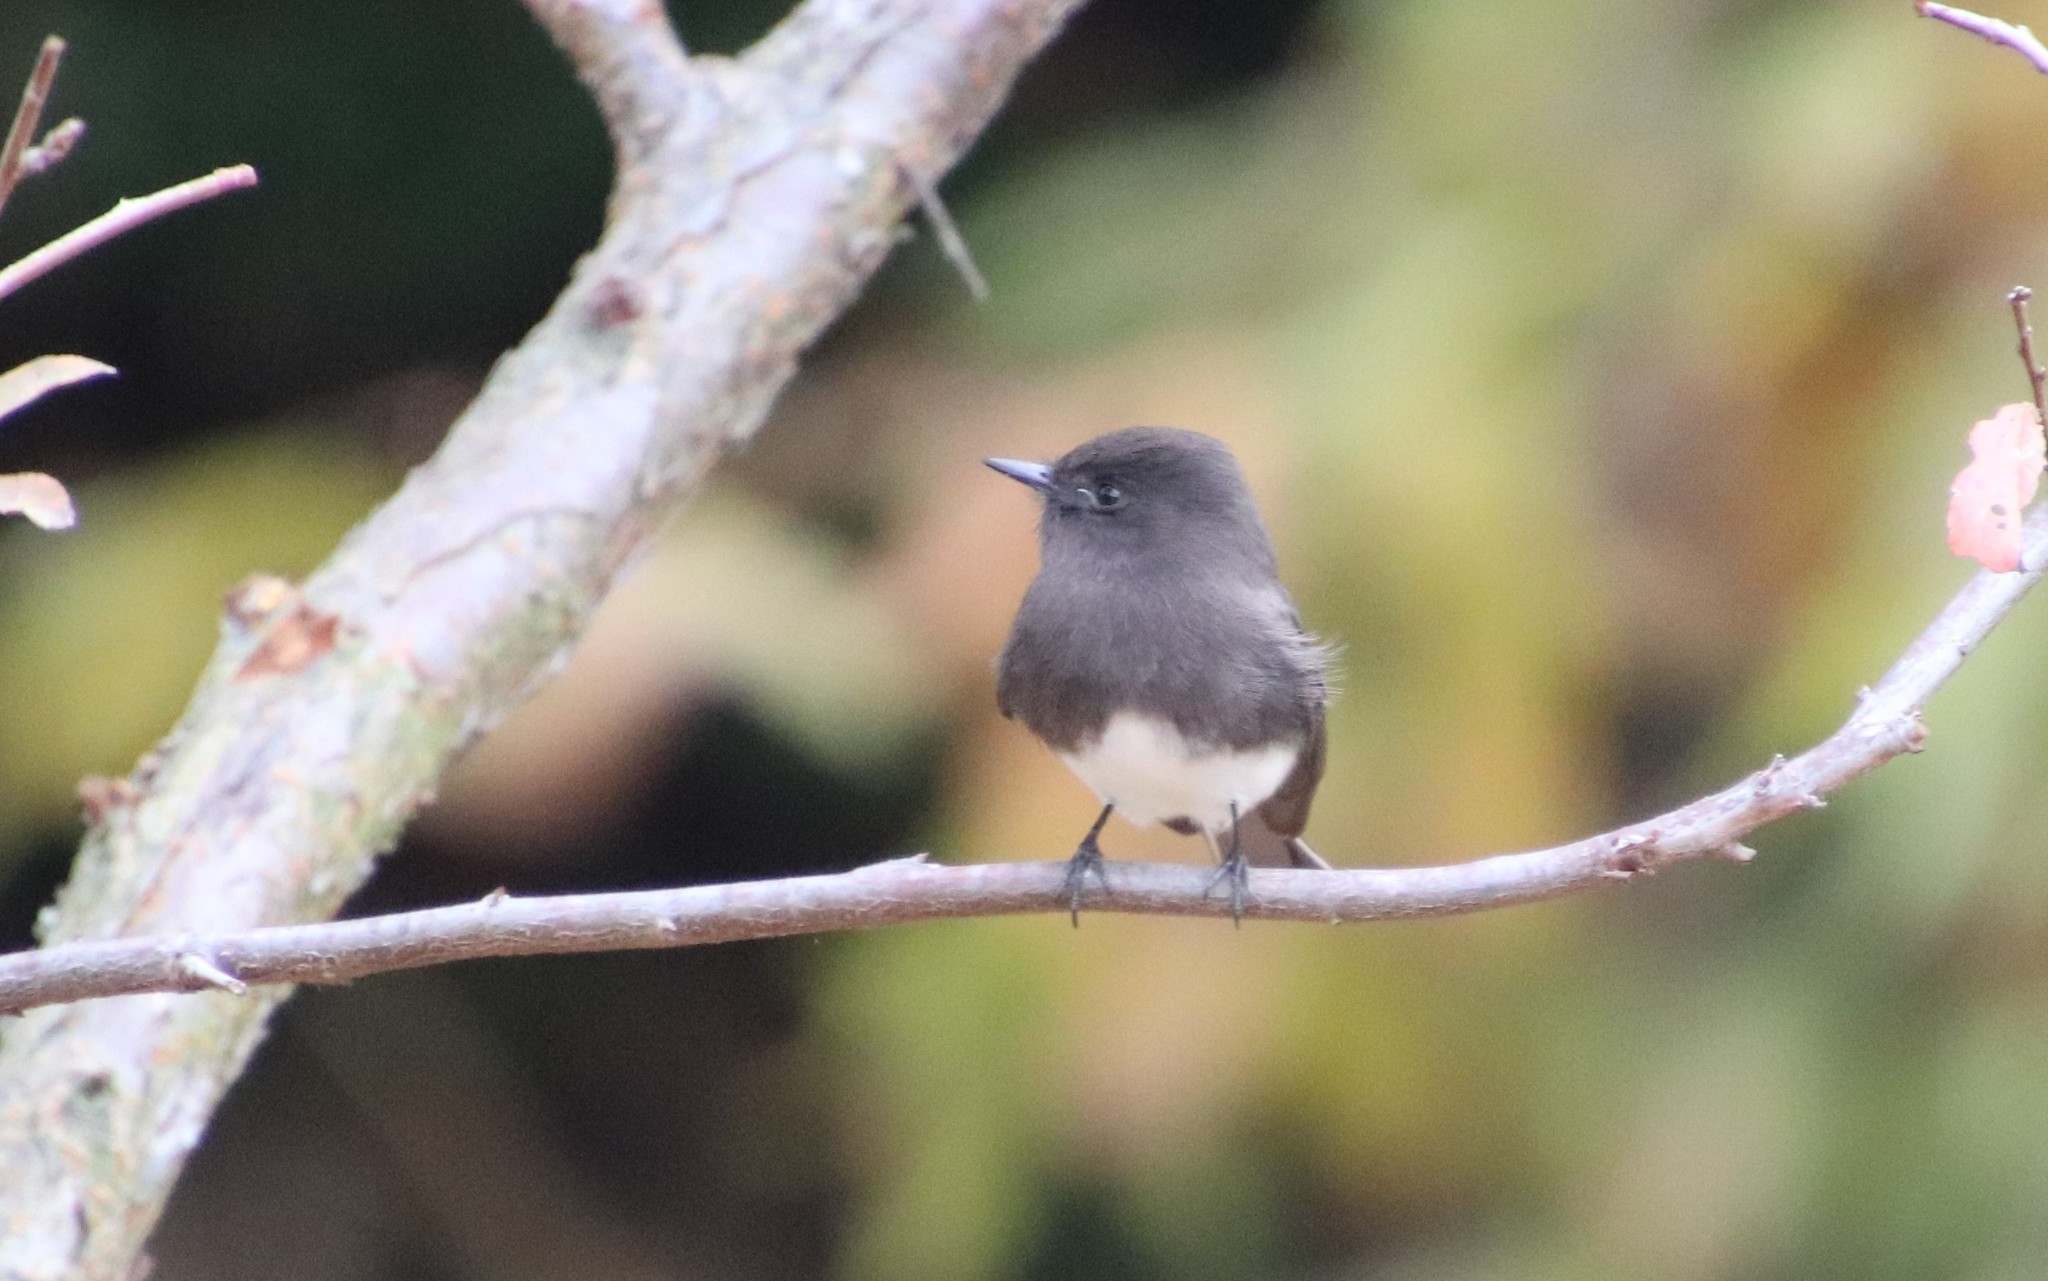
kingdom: Animalia
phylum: Chordata
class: Aves
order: Passeriformes
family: Tyrannidae
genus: Sayornis
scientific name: Sayornis nigricans
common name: Black phoebe
